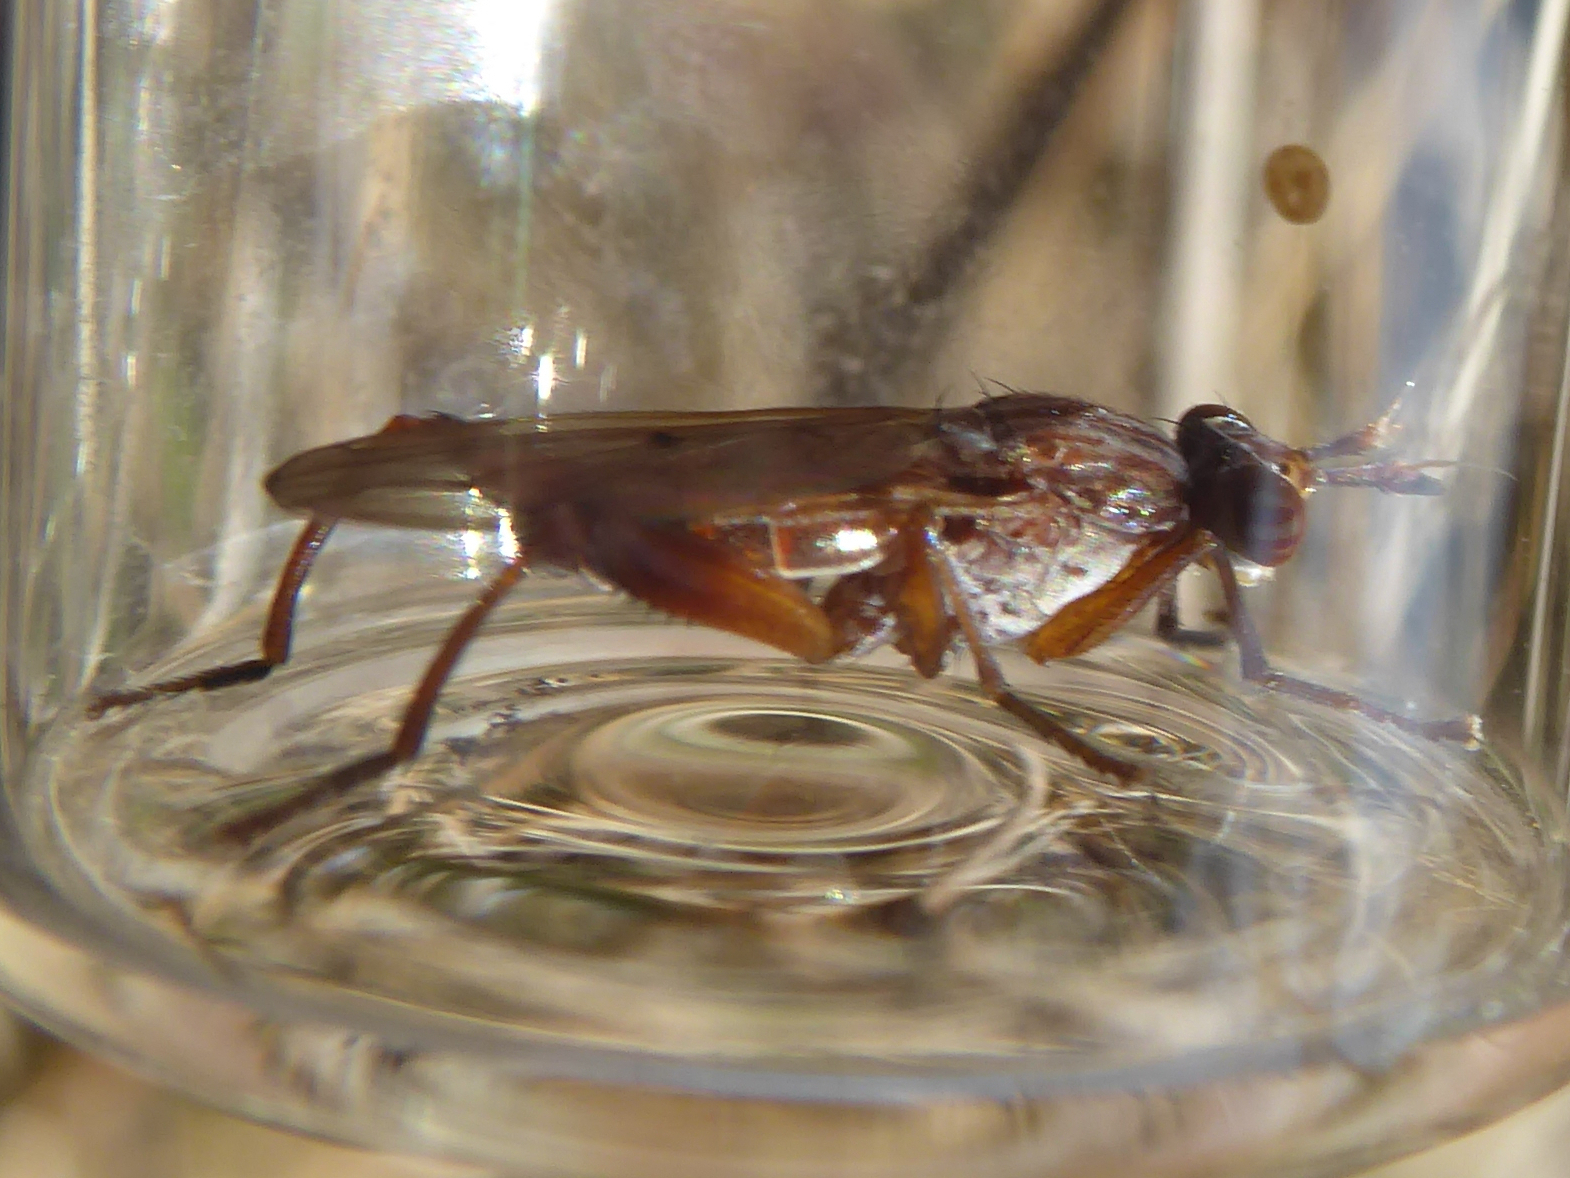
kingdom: Animalia
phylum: Arthropoda
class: Insecta
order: Diptera
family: Sciomyzidae
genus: Sepedon
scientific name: Sepedon spinipes
